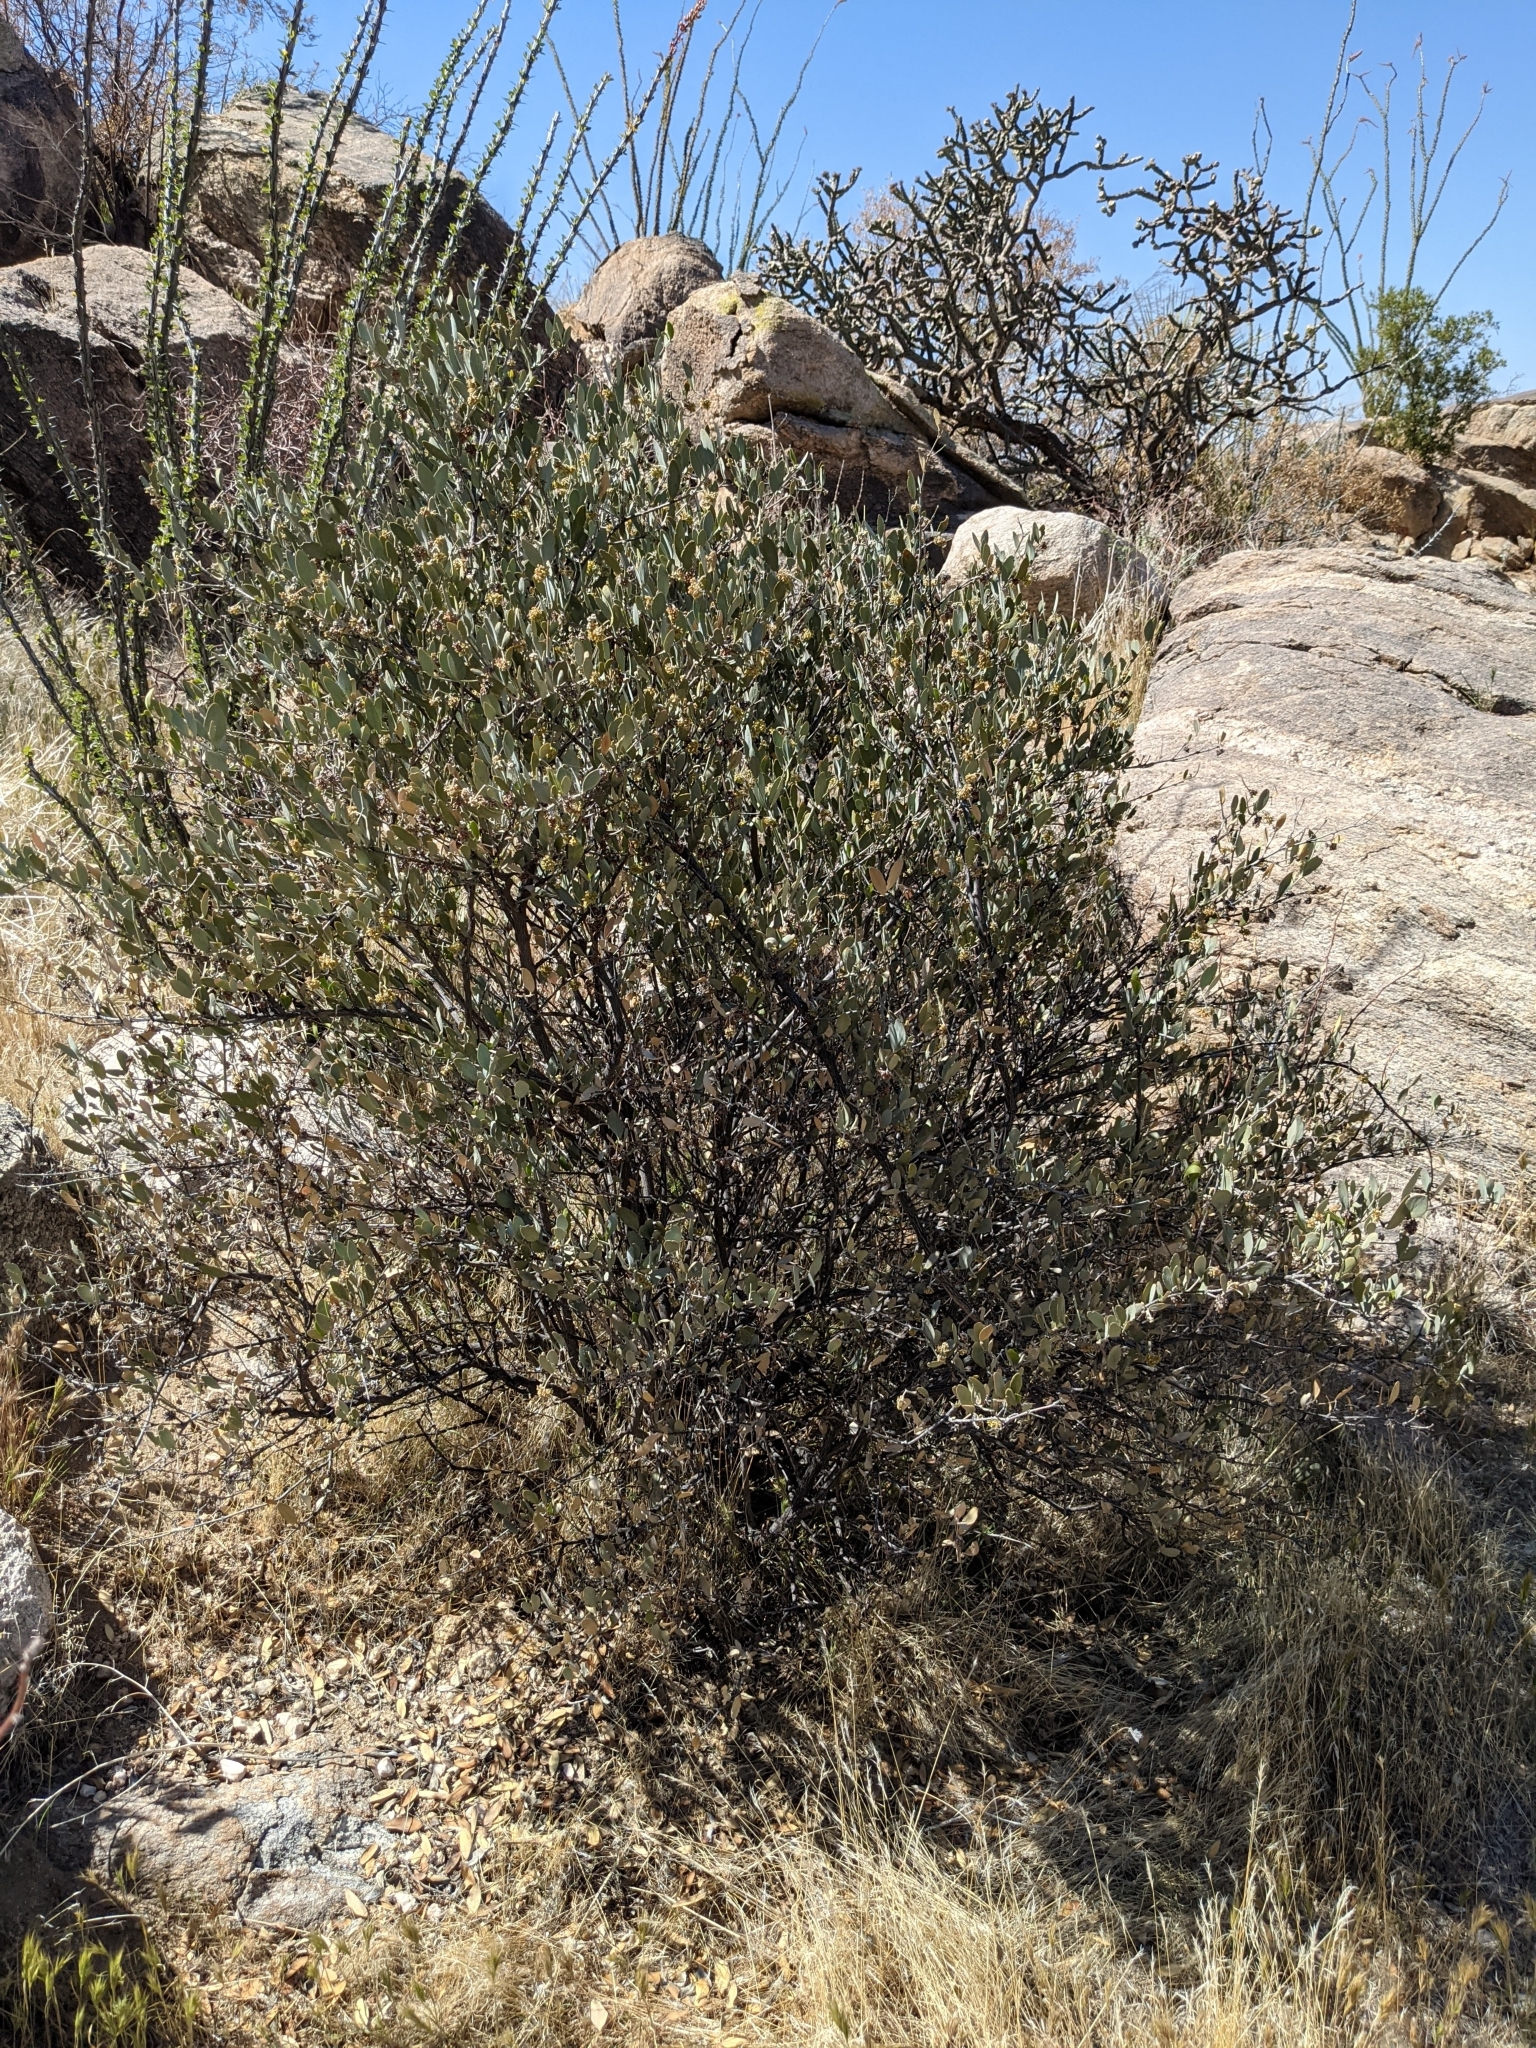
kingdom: Plantae
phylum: Tracheophyta
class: Magnoliopsida
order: Caryophyllales
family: Simmondsiaceae
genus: Simmondsia
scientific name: Simmondsia chinensis
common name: Jojoba
